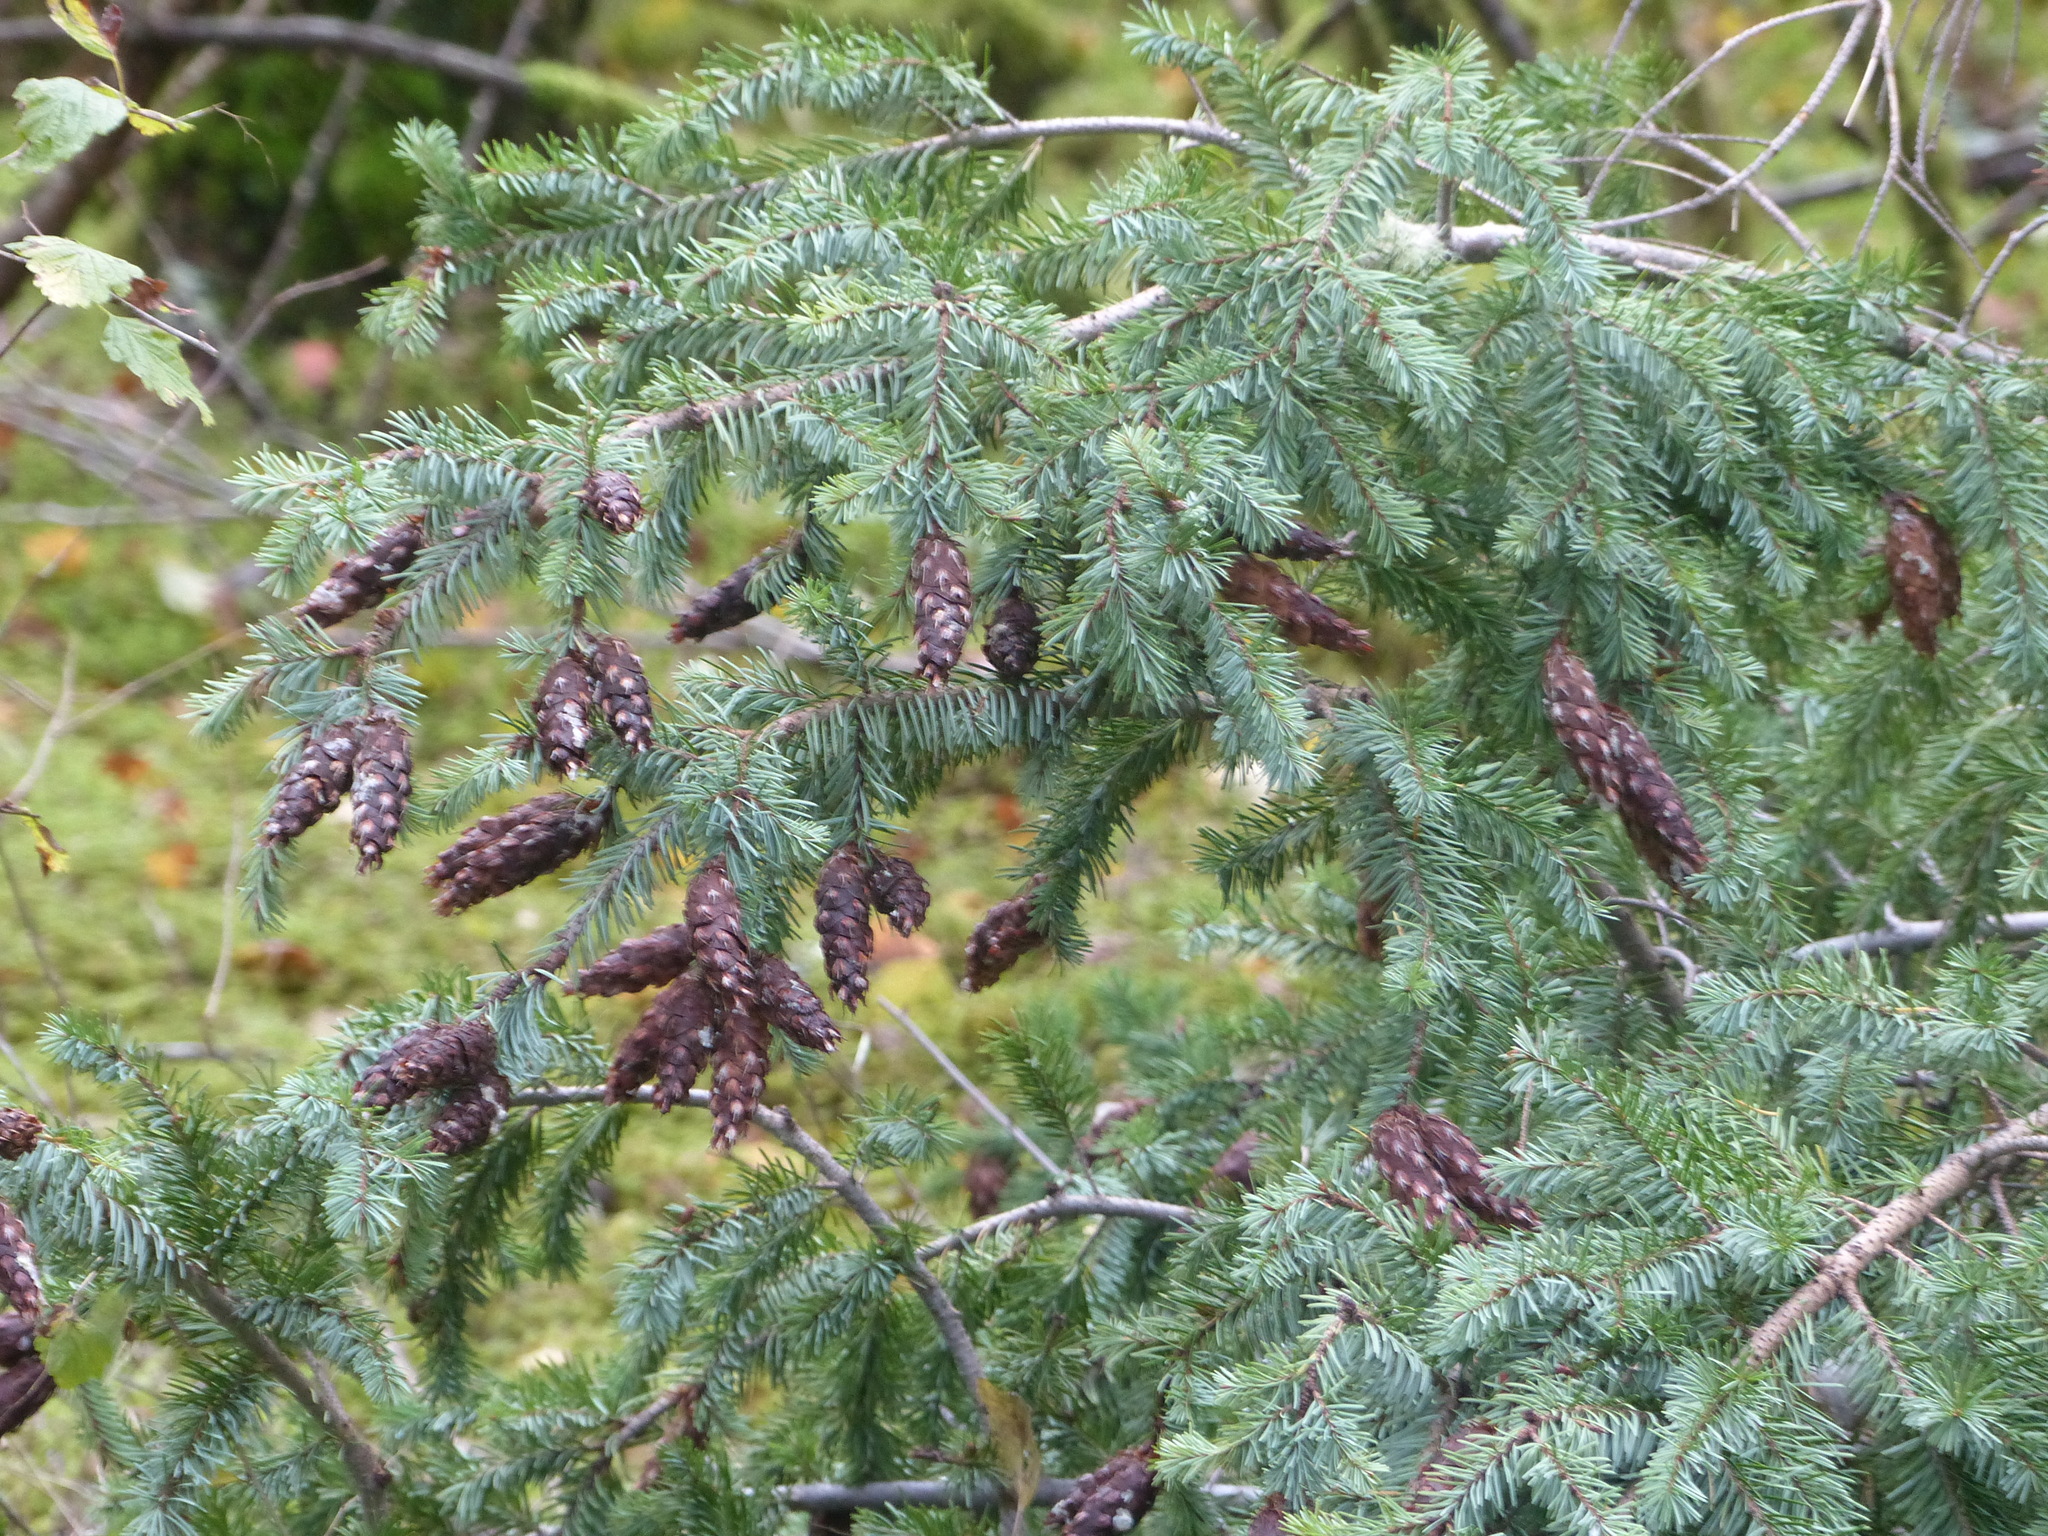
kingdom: Plantae
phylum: Tracheophyta
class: Pinopsida
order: Pinales
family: Pinaceae
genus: Pseudotsuga
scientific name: Pseudotsuga menziesii
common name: Douglas fir
